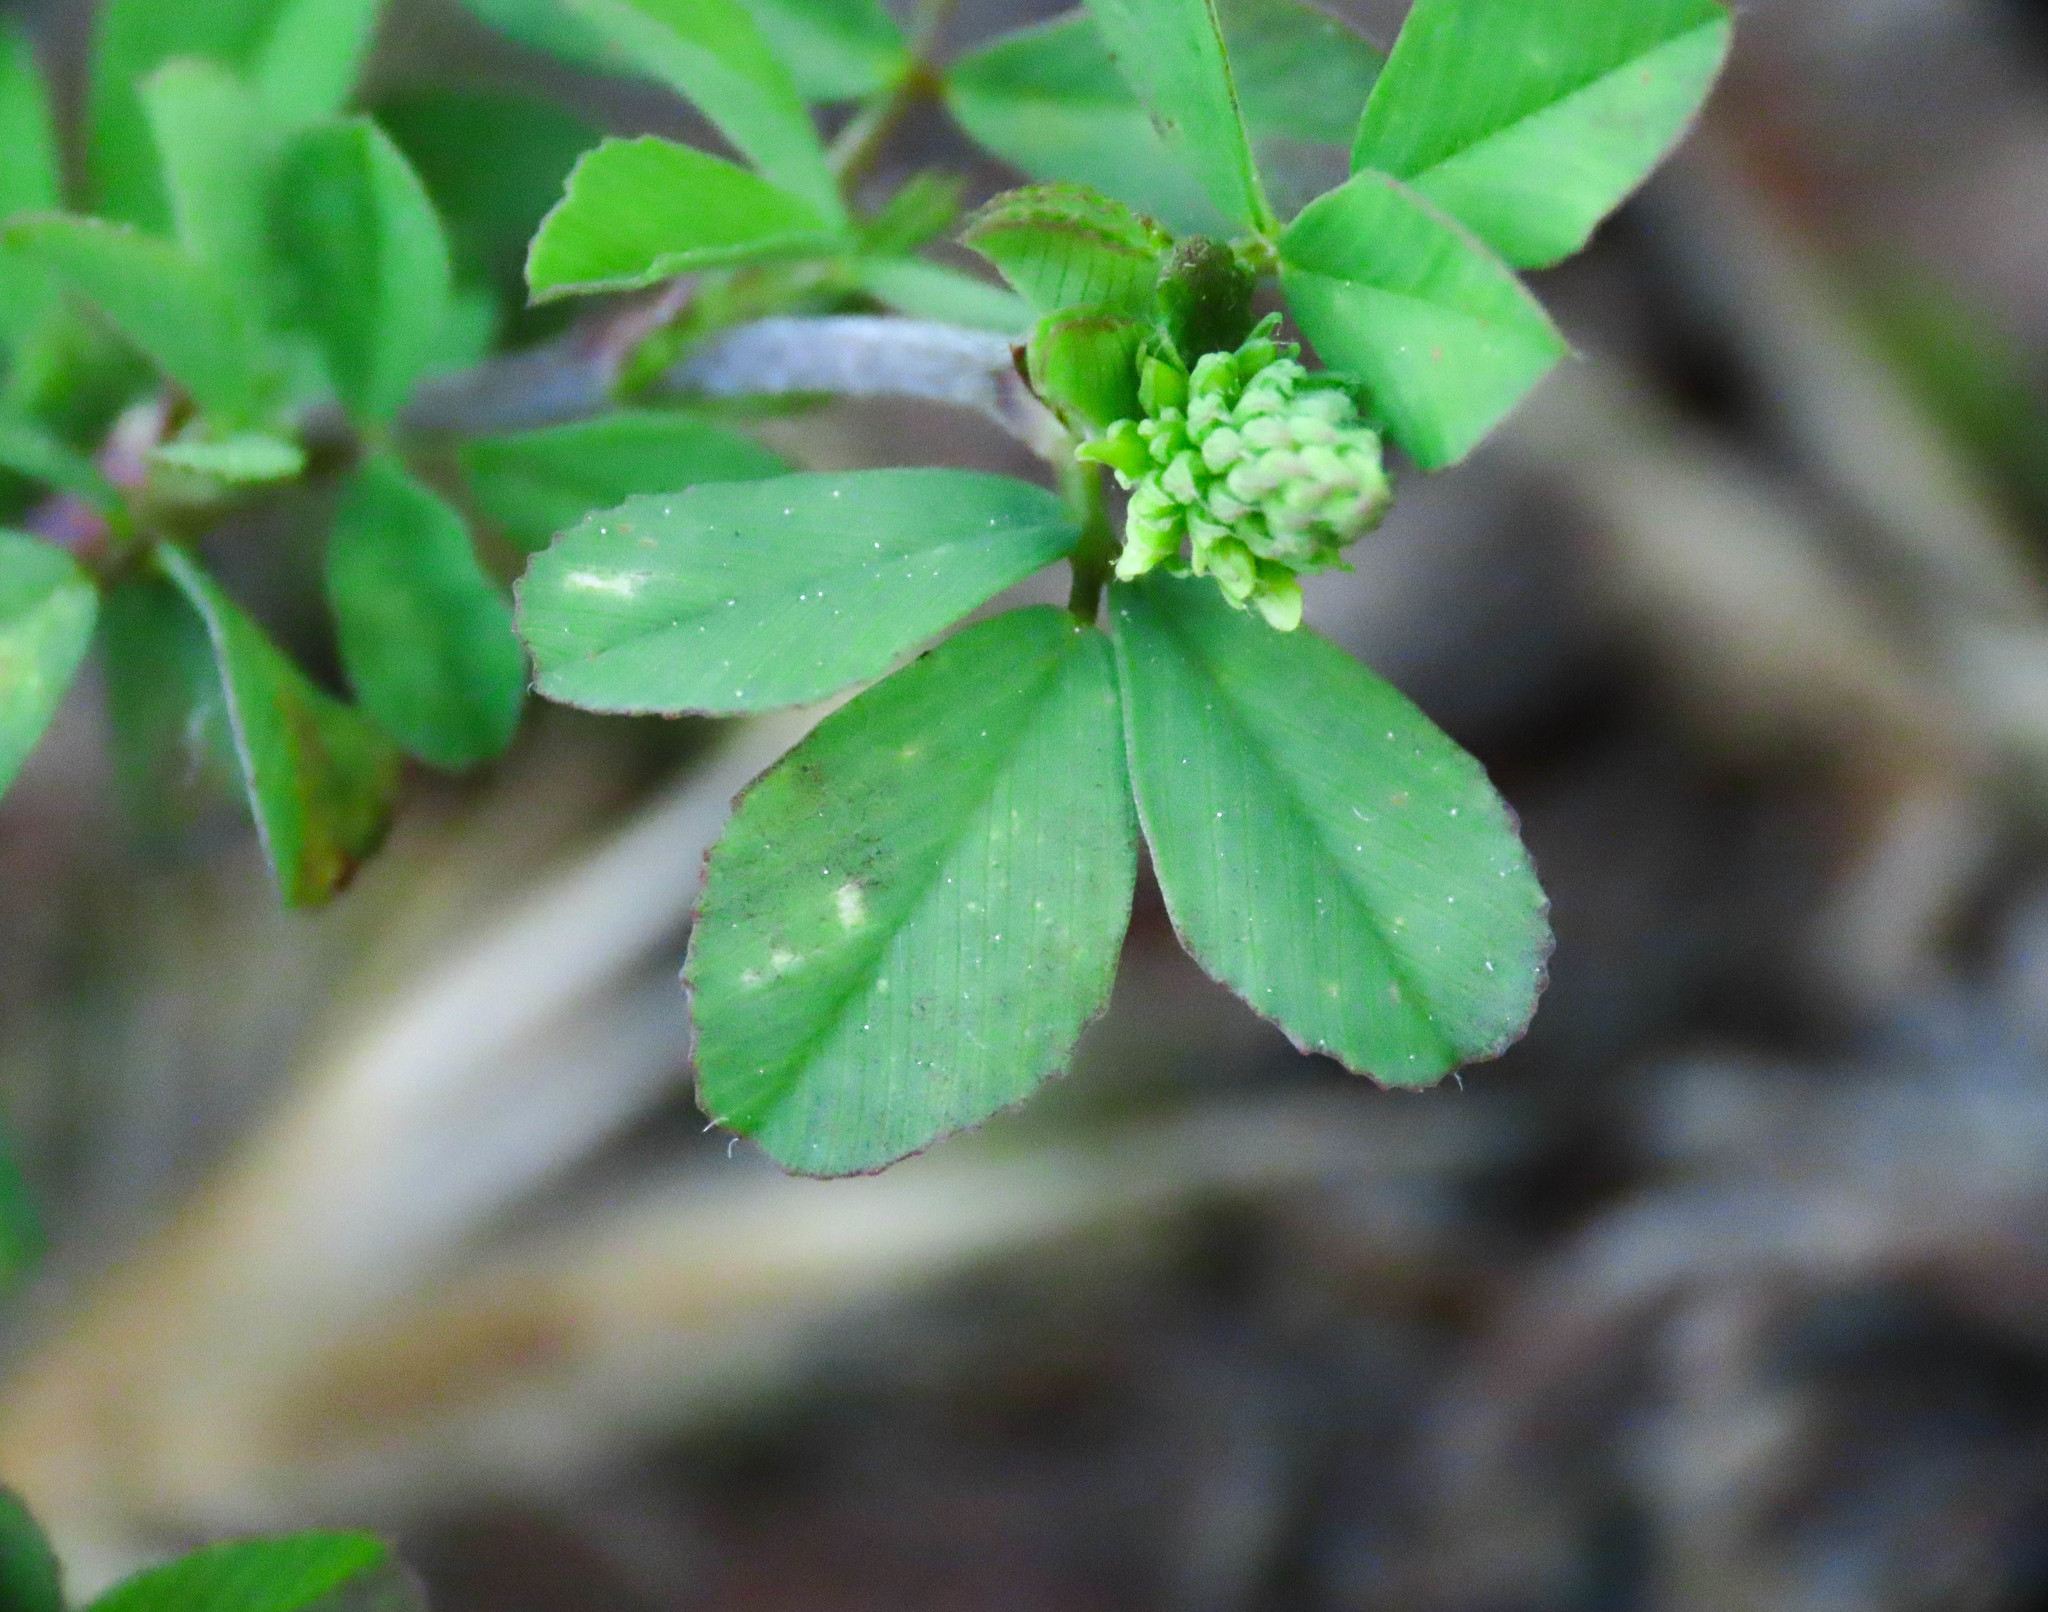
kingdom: Plantae
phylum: Tracheophyta
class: Magnoliopsida
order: Fabales
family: Fabaceae
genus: Trifolium
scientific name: Trifolium campestre
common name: Field clover
